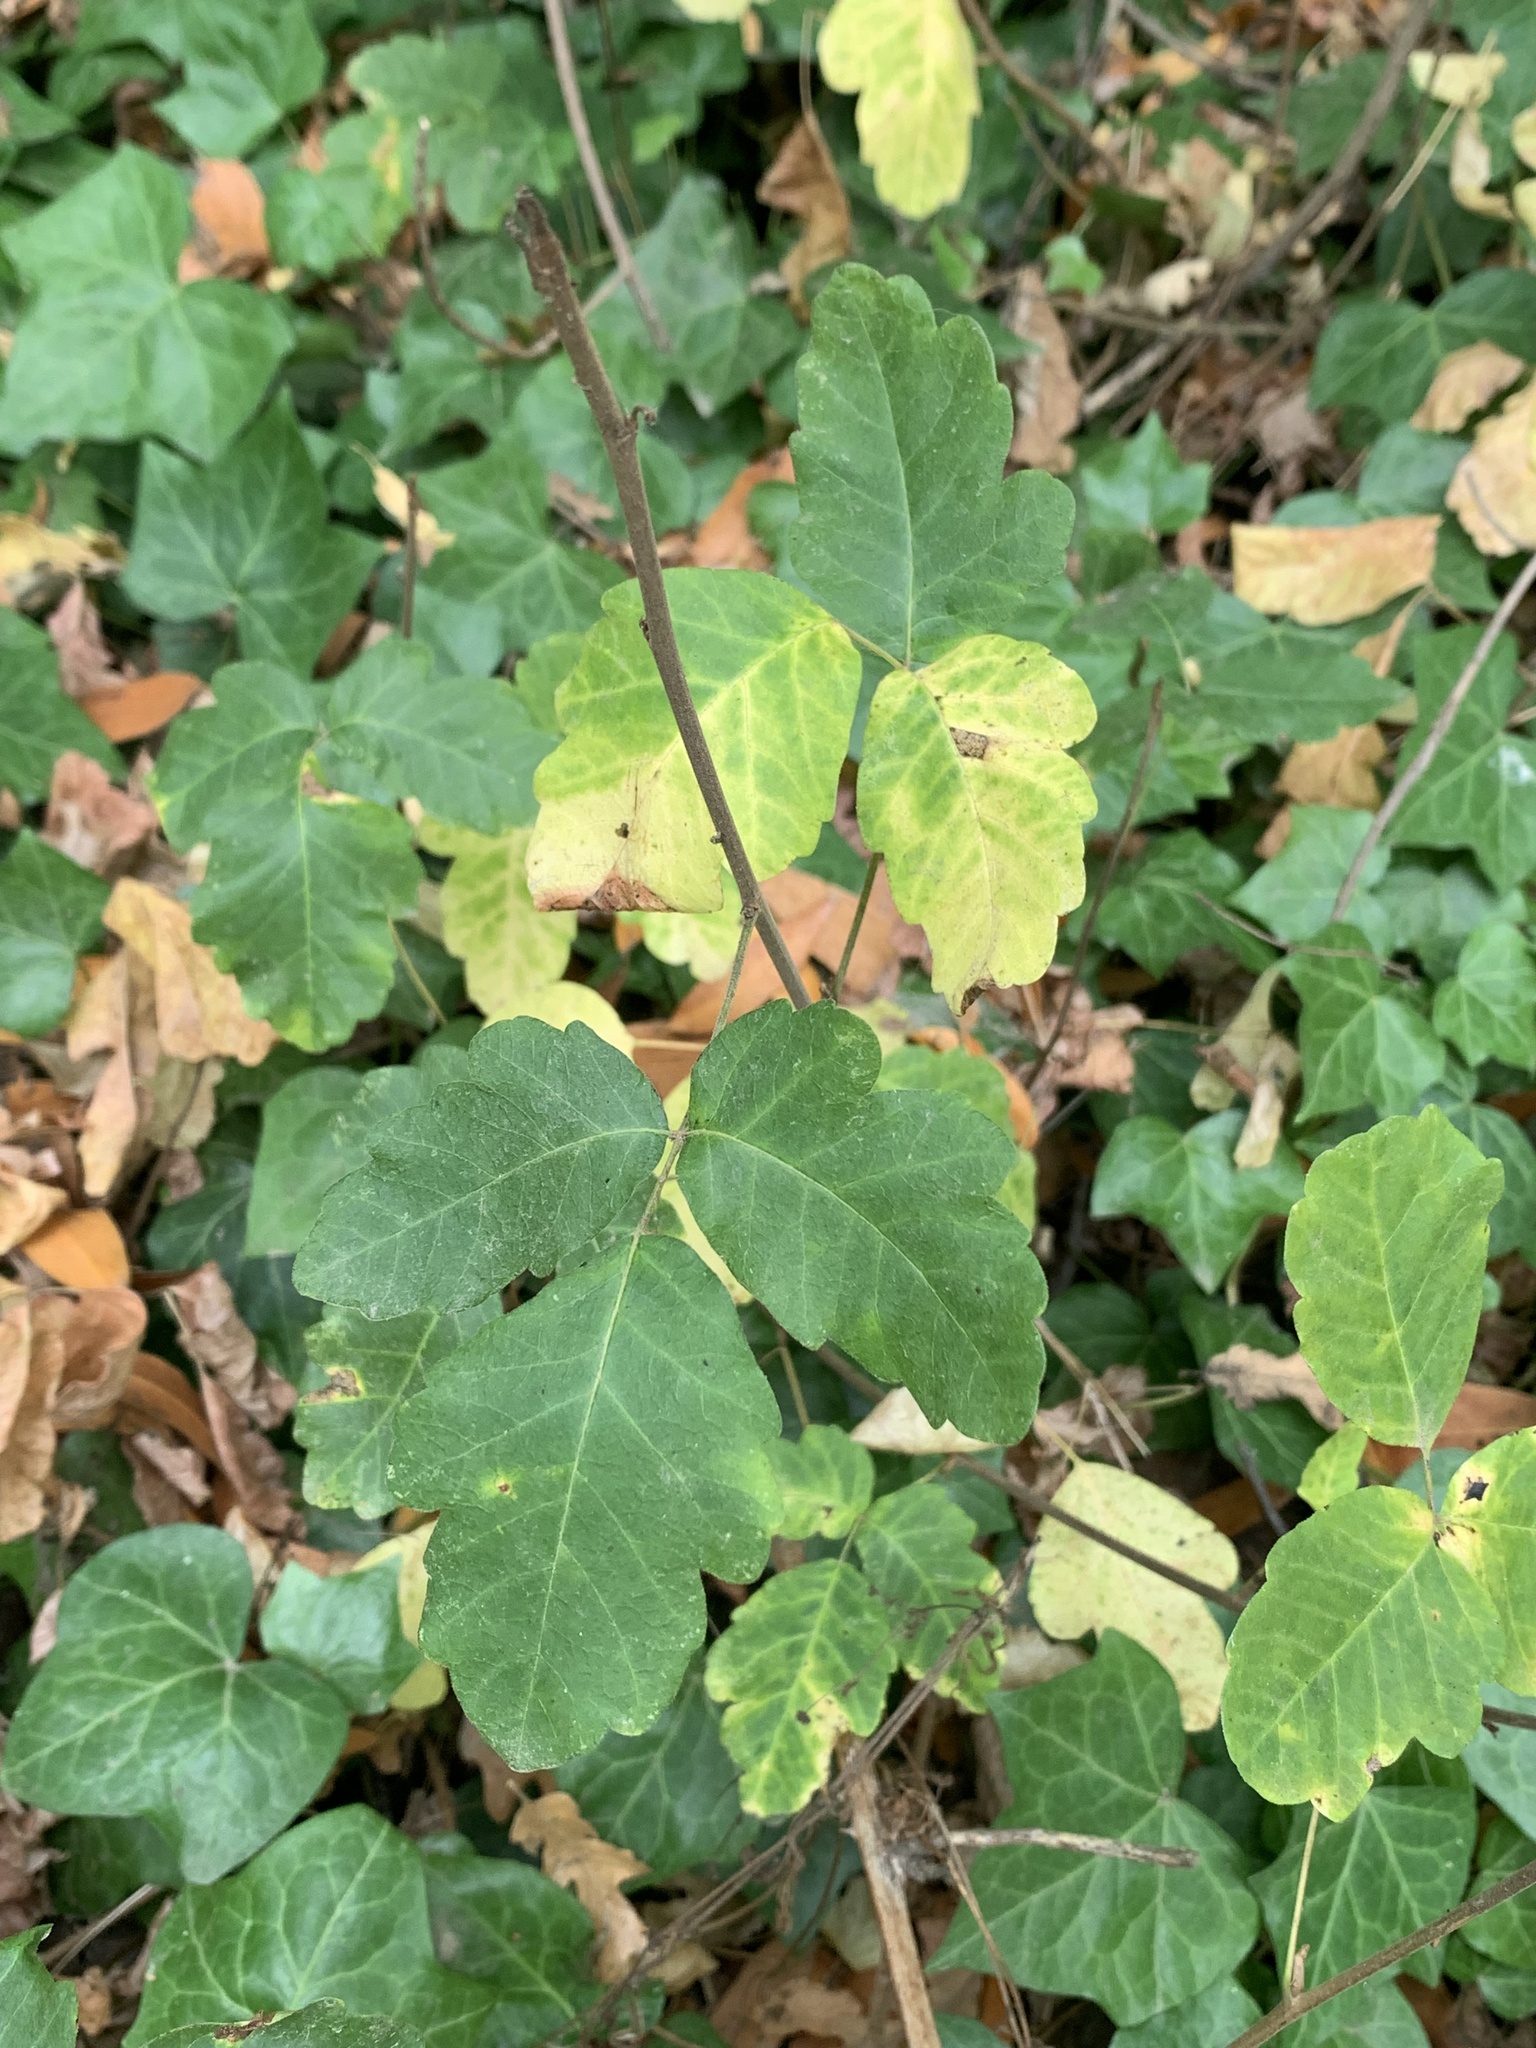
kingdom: Plantae
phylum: Tracheophyta
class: Magnoliopsida
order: Sapindales
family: Anacardiaceae
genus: Toxicodendron
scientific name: Toxicodendron diversilobum
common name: Pacific poison-oak
